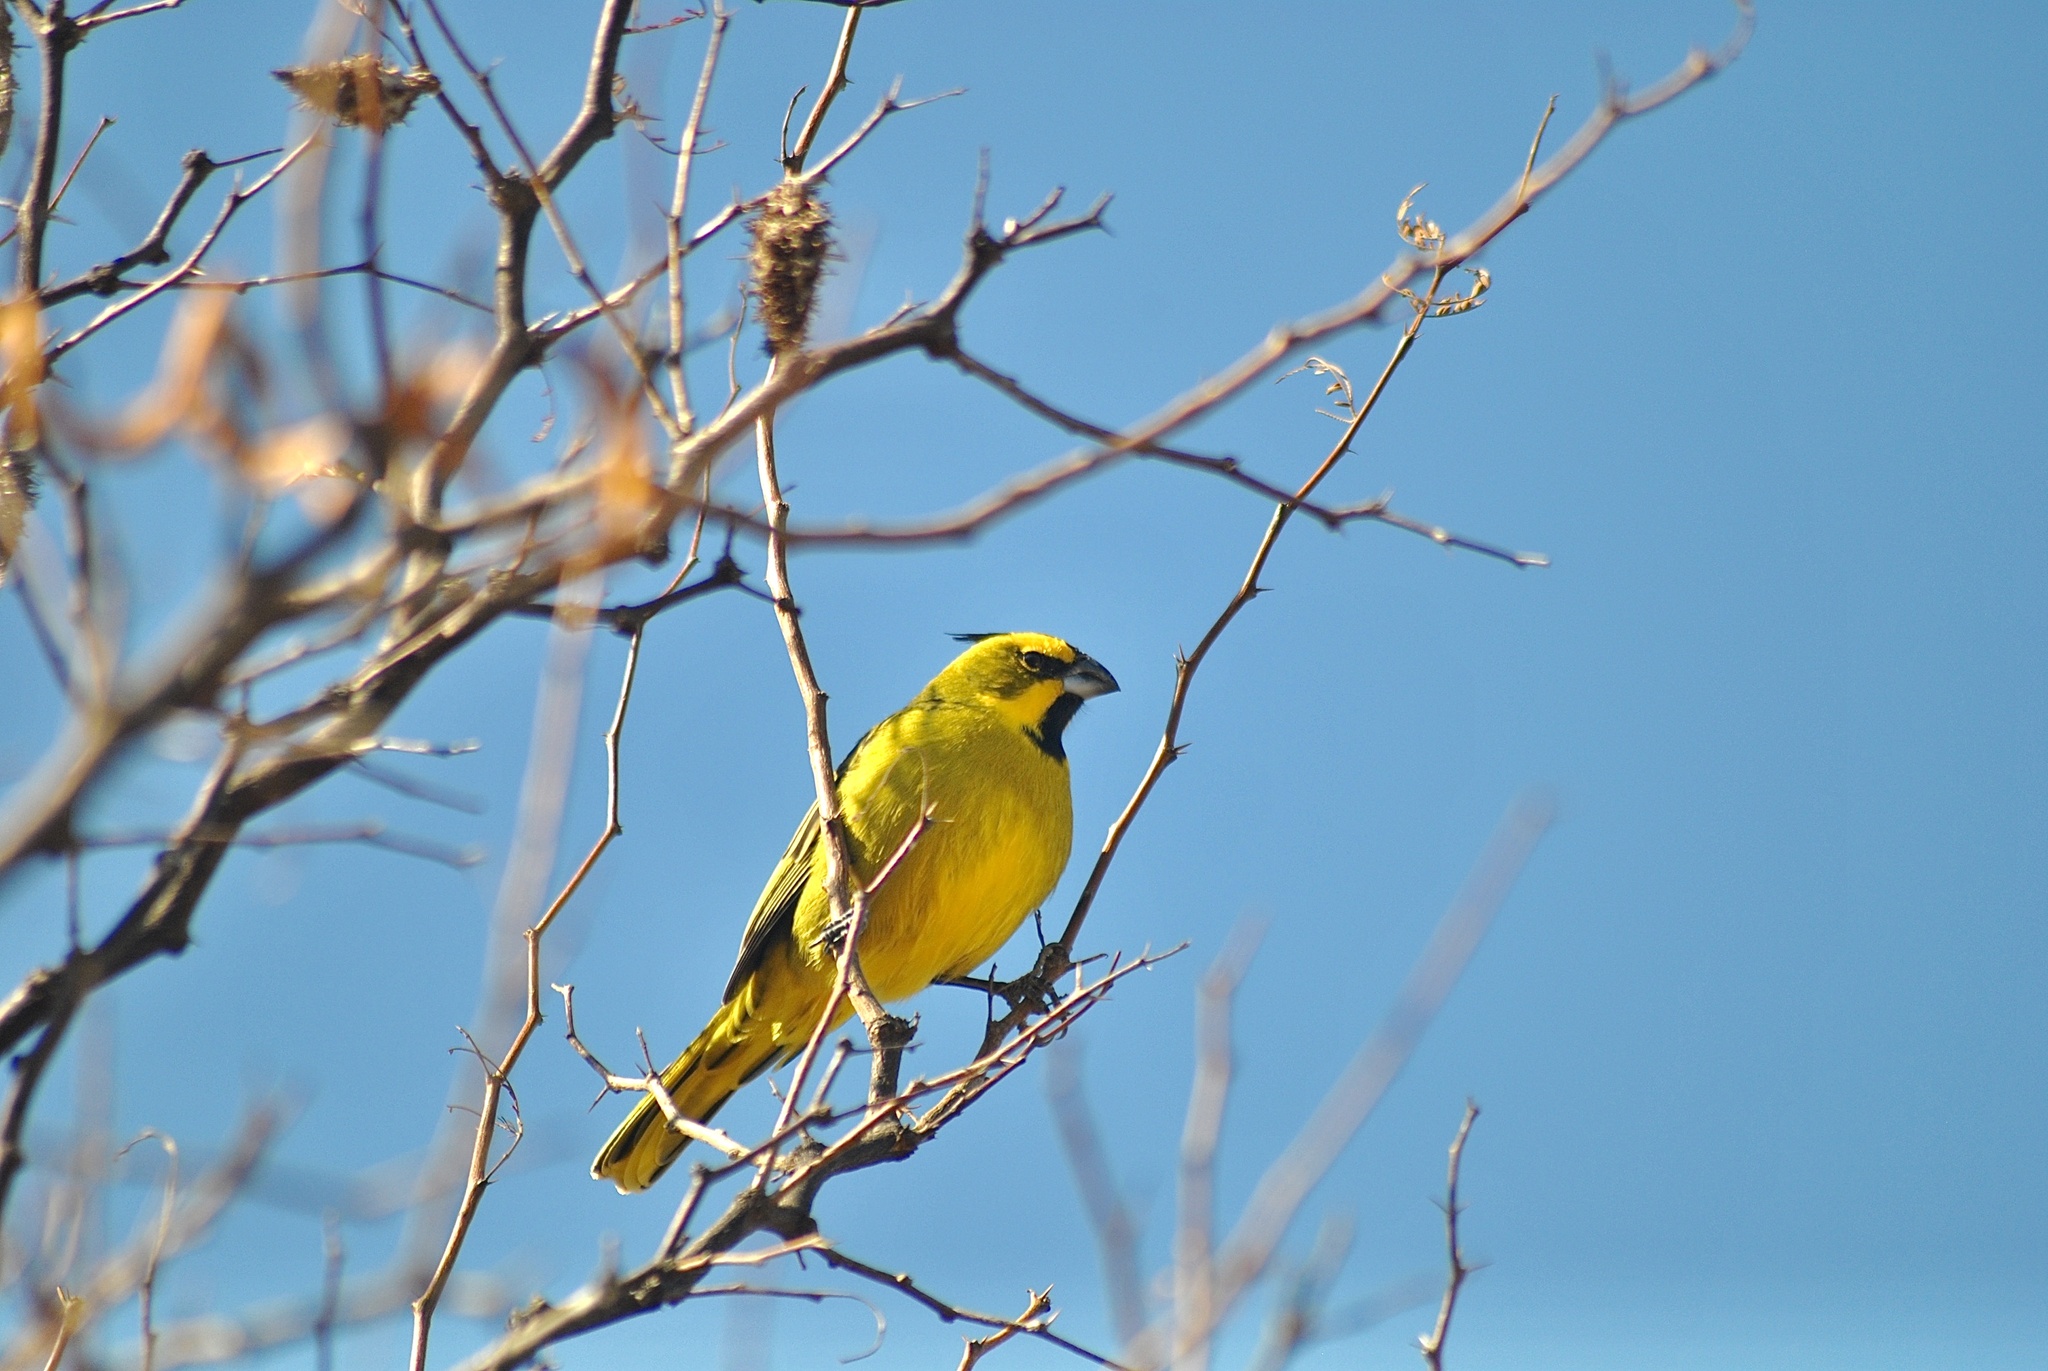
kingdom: Animalia
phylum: Chordata
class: Aves
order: Passeriformes
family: Thraupidae
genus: Gubernatrix
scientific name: Gubernatrix cristata
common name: Yellow cardinal
